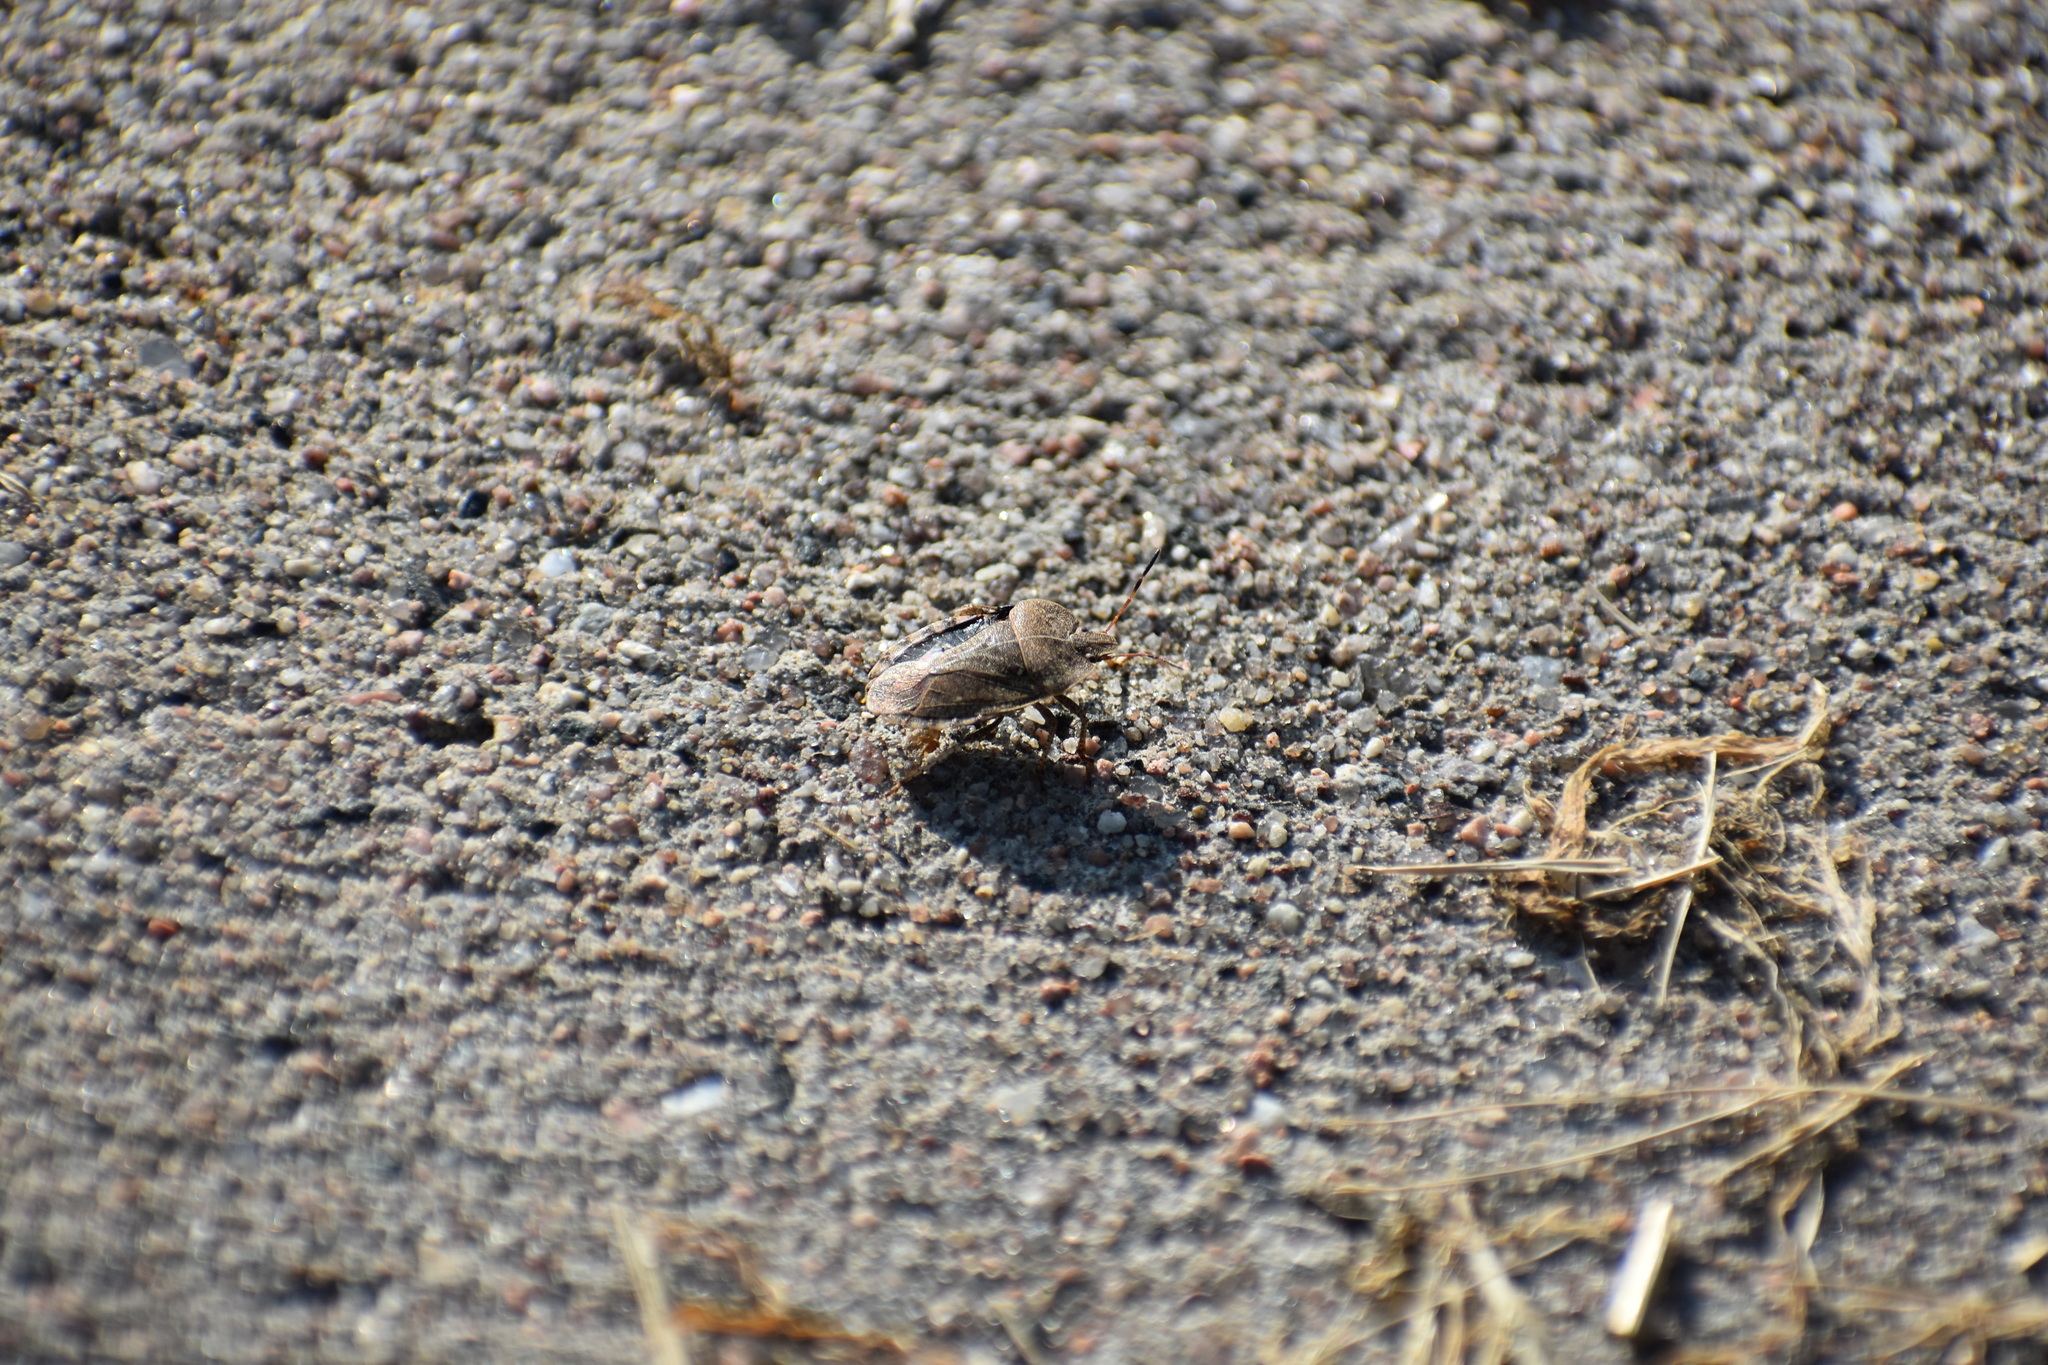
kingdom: Animalia
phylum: Arthropoda
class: Insecta
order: Hemiptera
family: Pentatomidae
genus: Menecles
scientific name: Menecles insertus
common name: Elf shoe stink bug
